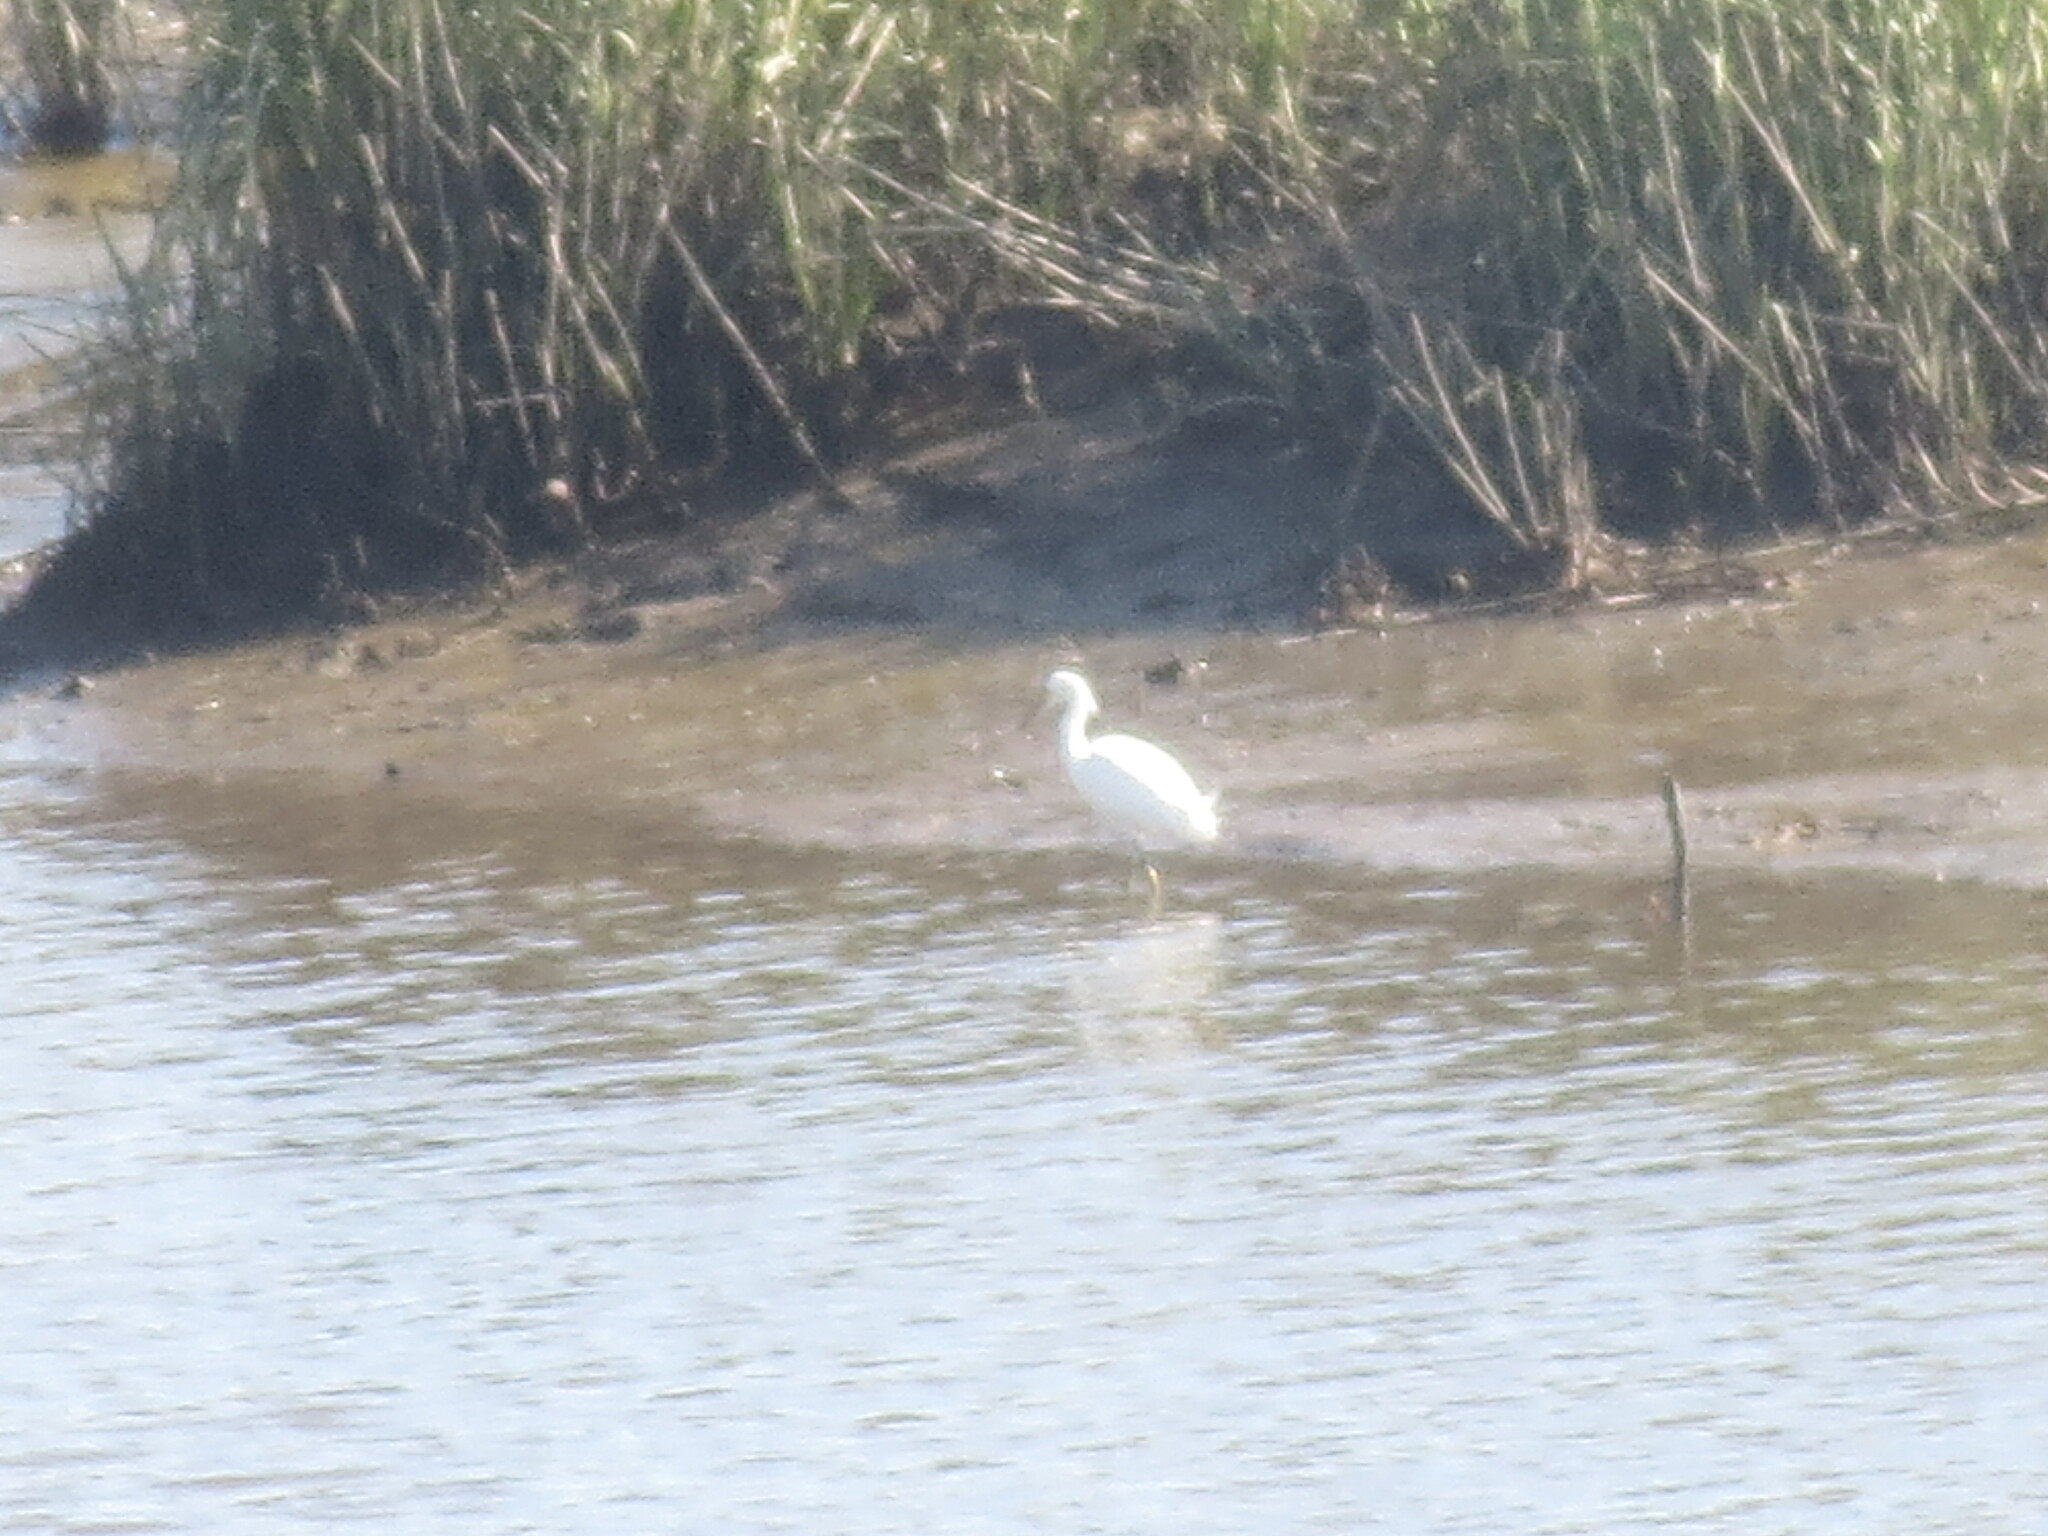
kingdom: Animalia
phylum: Chordata
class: Aves
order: Pelecaniformes
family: Ardeidae
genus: Egretta
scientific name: Egretta thula
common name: Snowy egret
